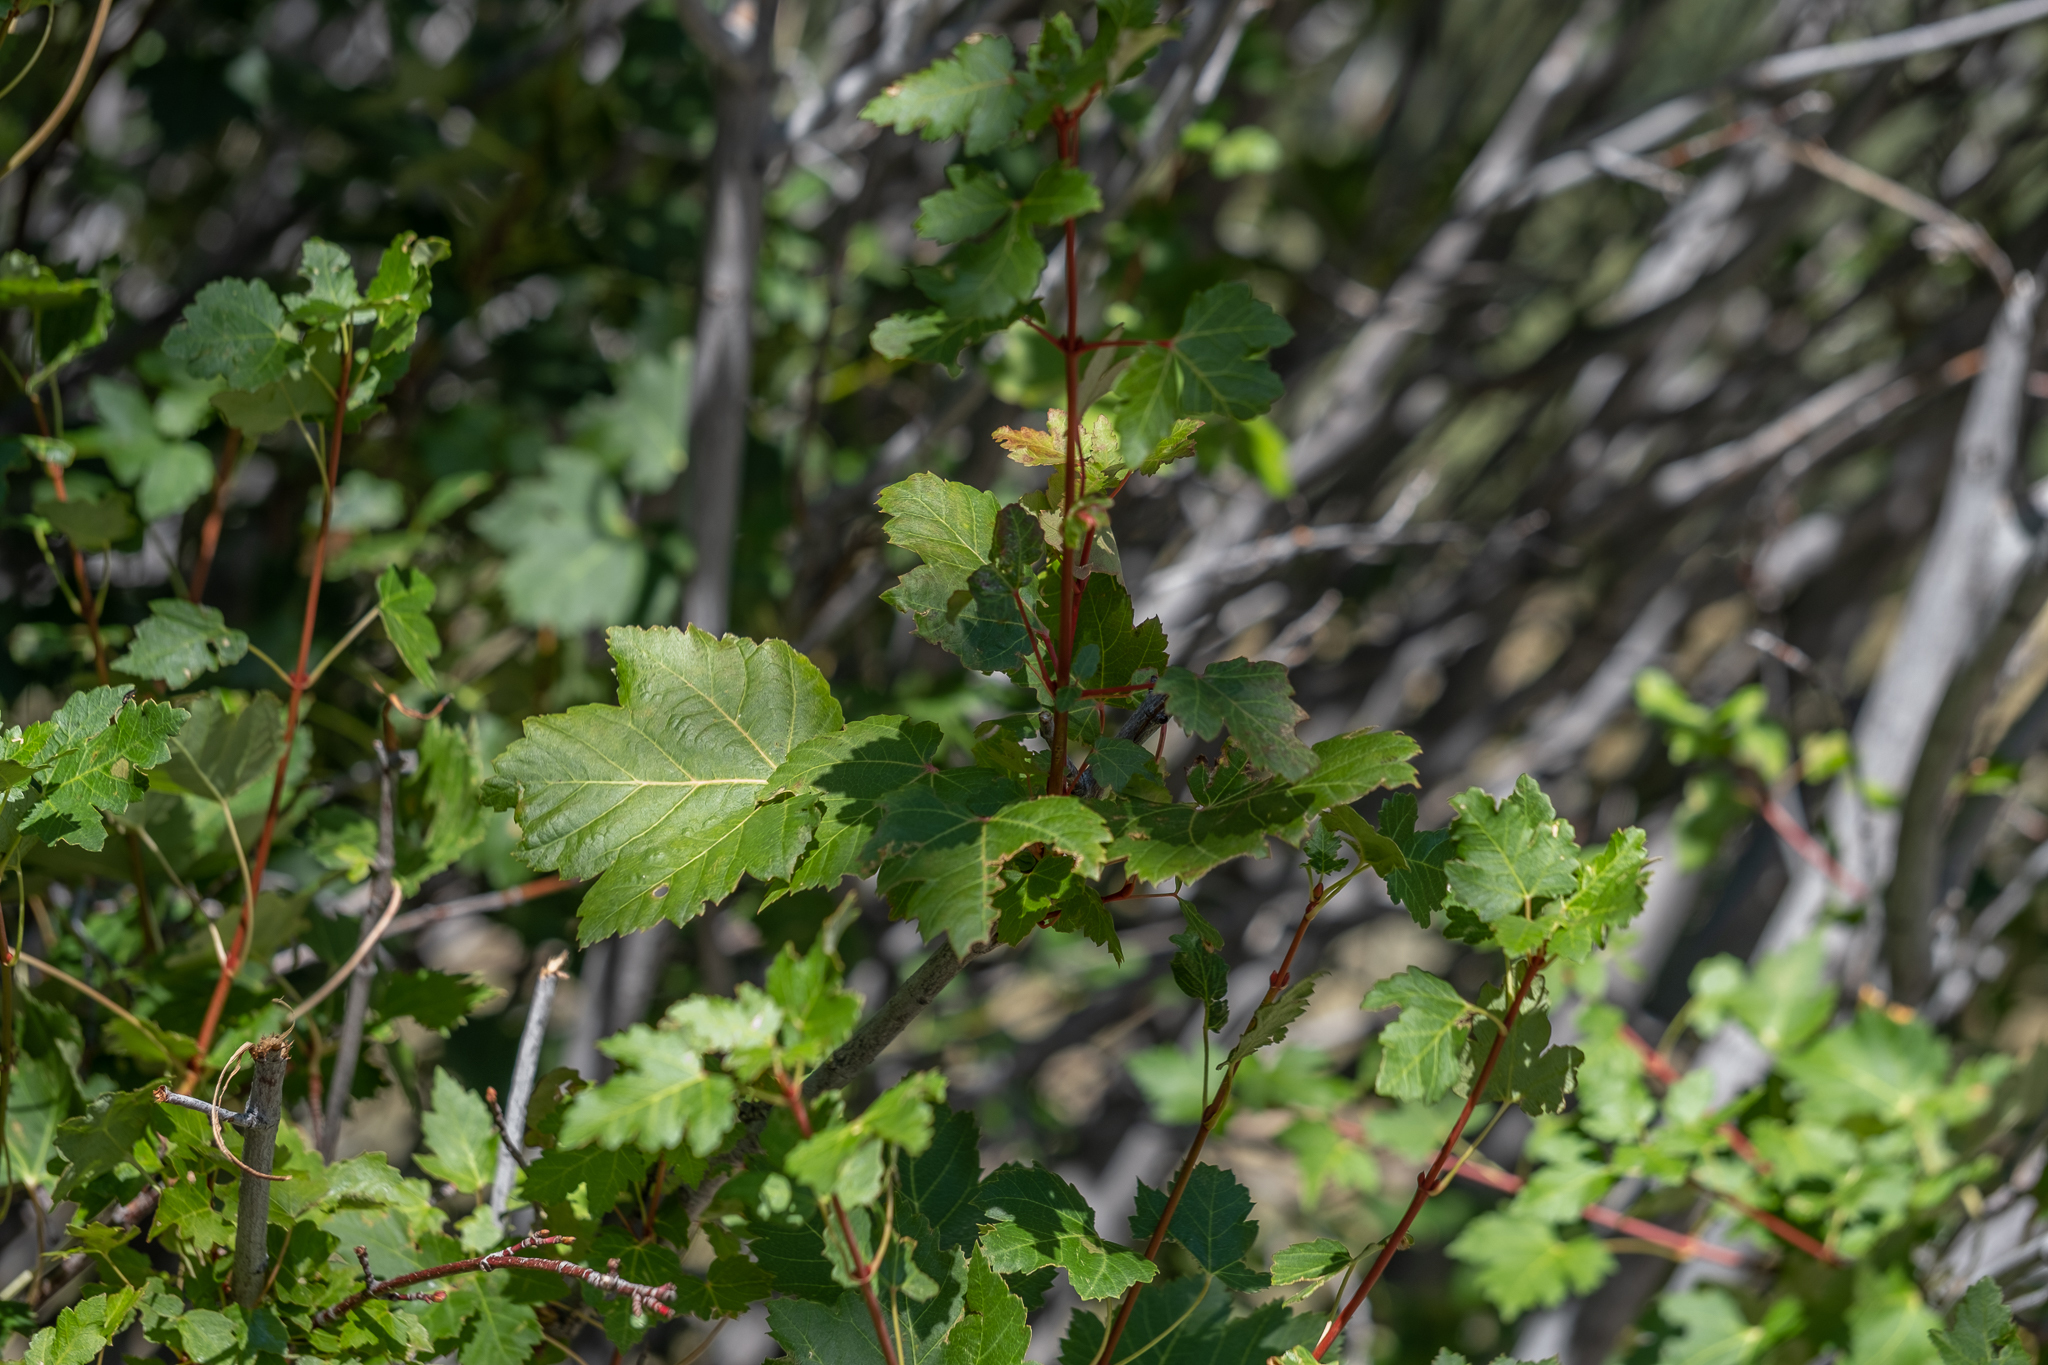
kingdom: Plantae
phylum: Tracheophyta
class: Magnoliopsida
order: Sapindales
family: Sapindaceae
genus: Acer
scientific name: Acer glabrum
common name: Rocky mountain maple
